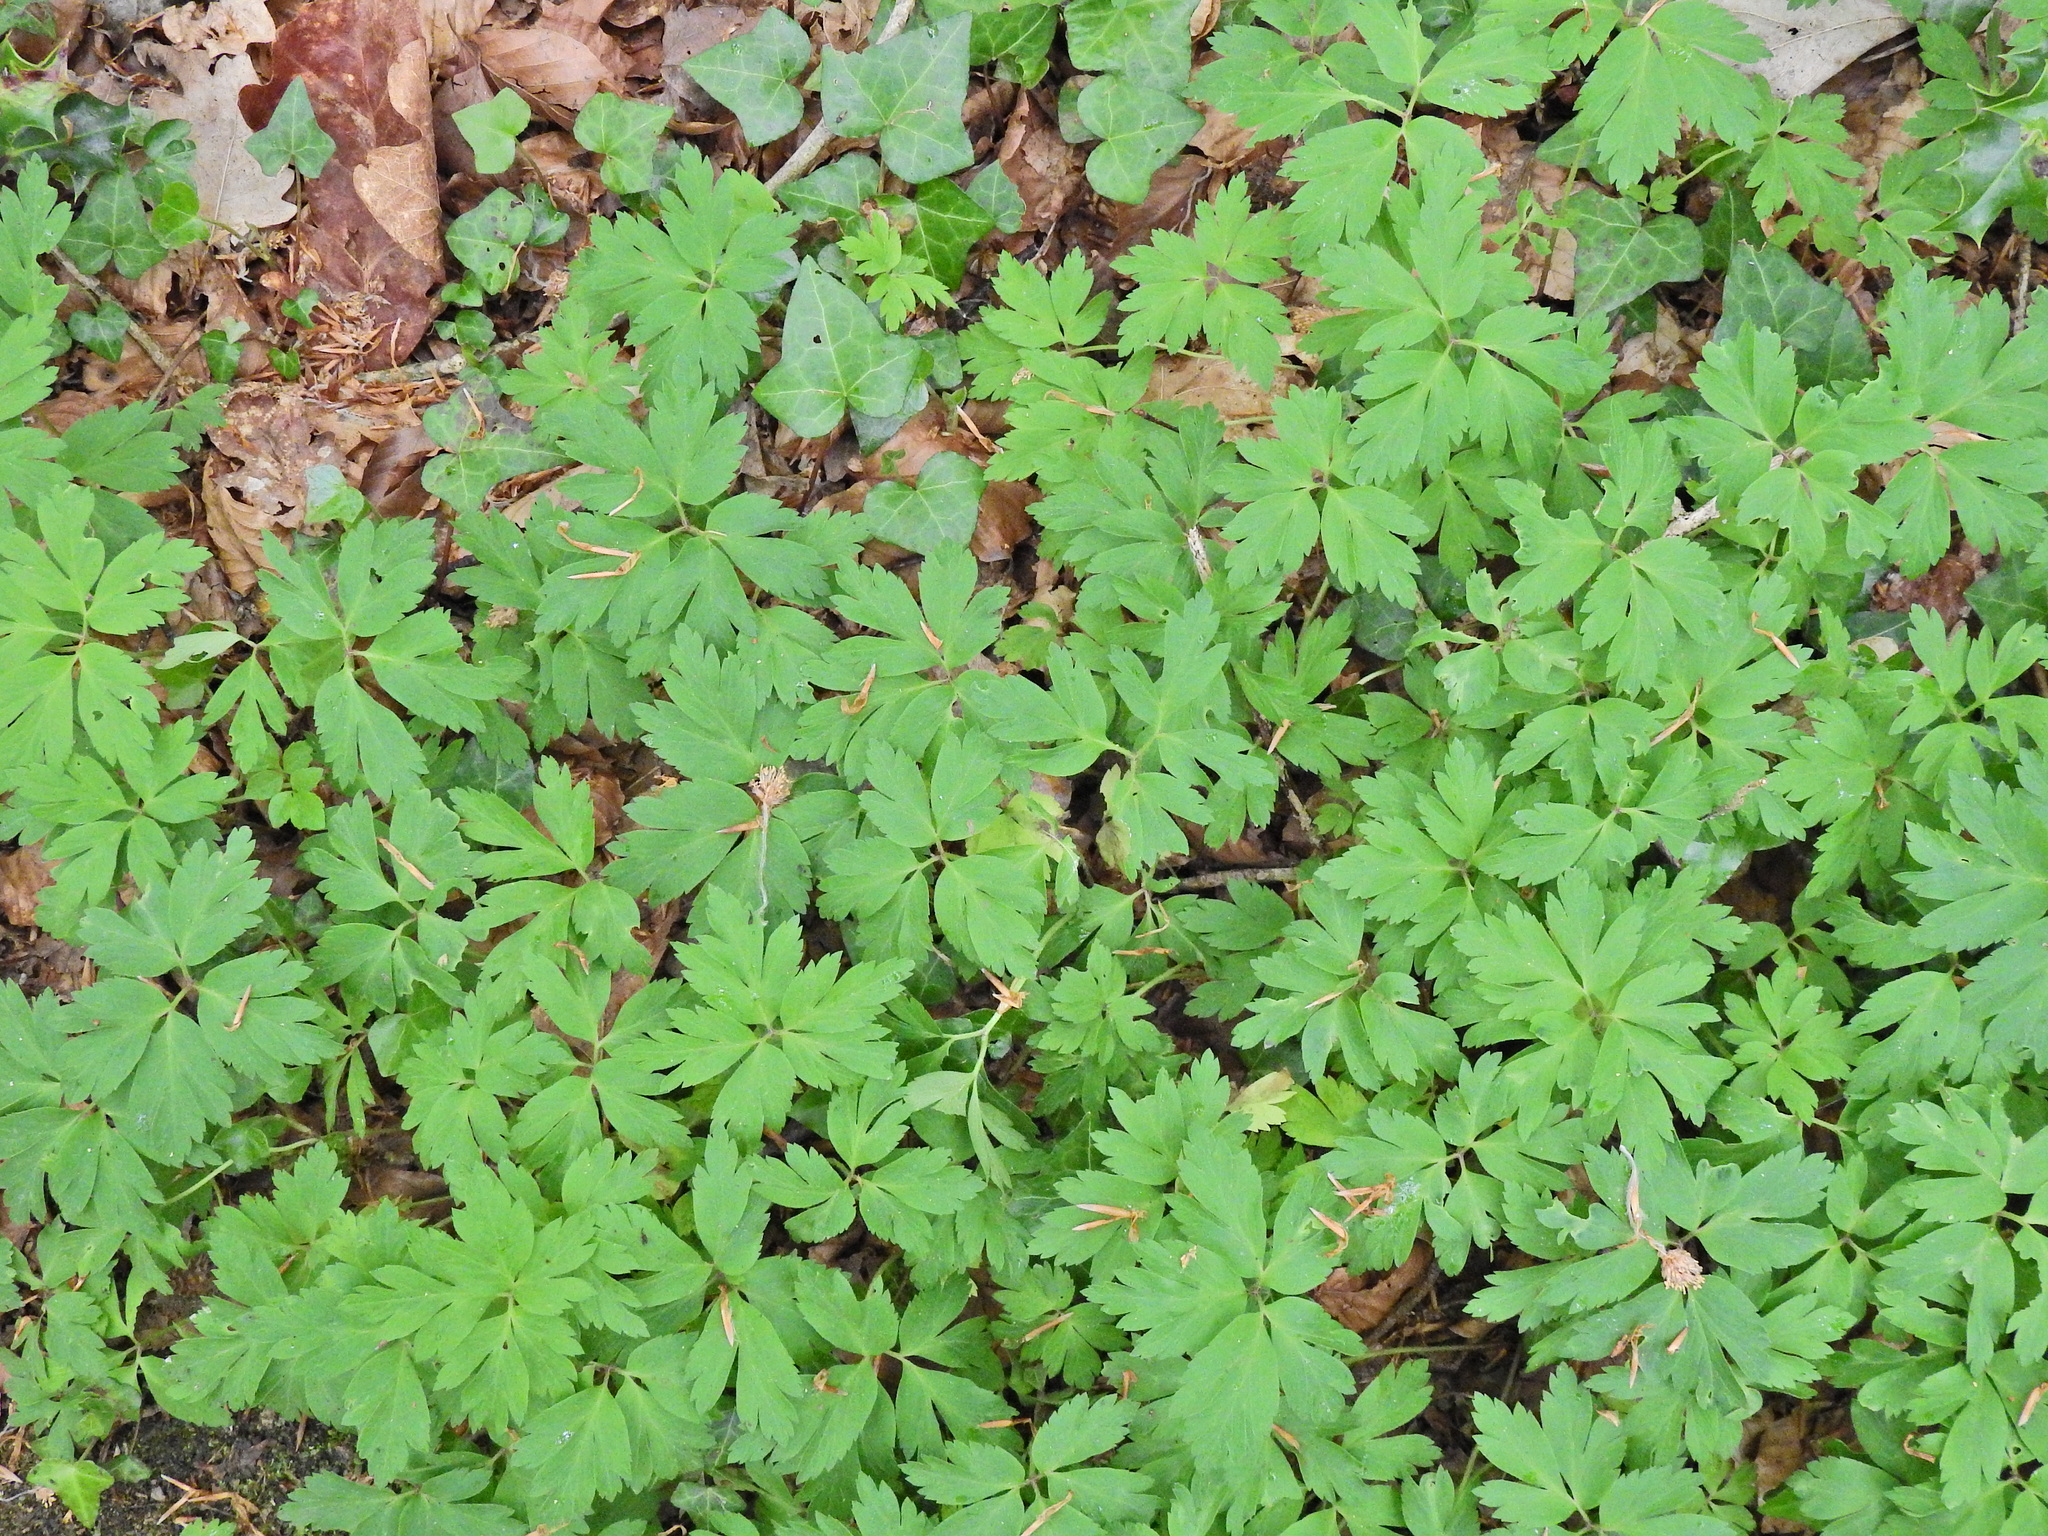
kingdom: Plantae
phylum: Tracheophyta
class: Magnoliopsida
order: Ranunculales
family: Ranunculaceae
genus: Anemone
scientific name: Anemone nemorosa
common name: Wood anemone
